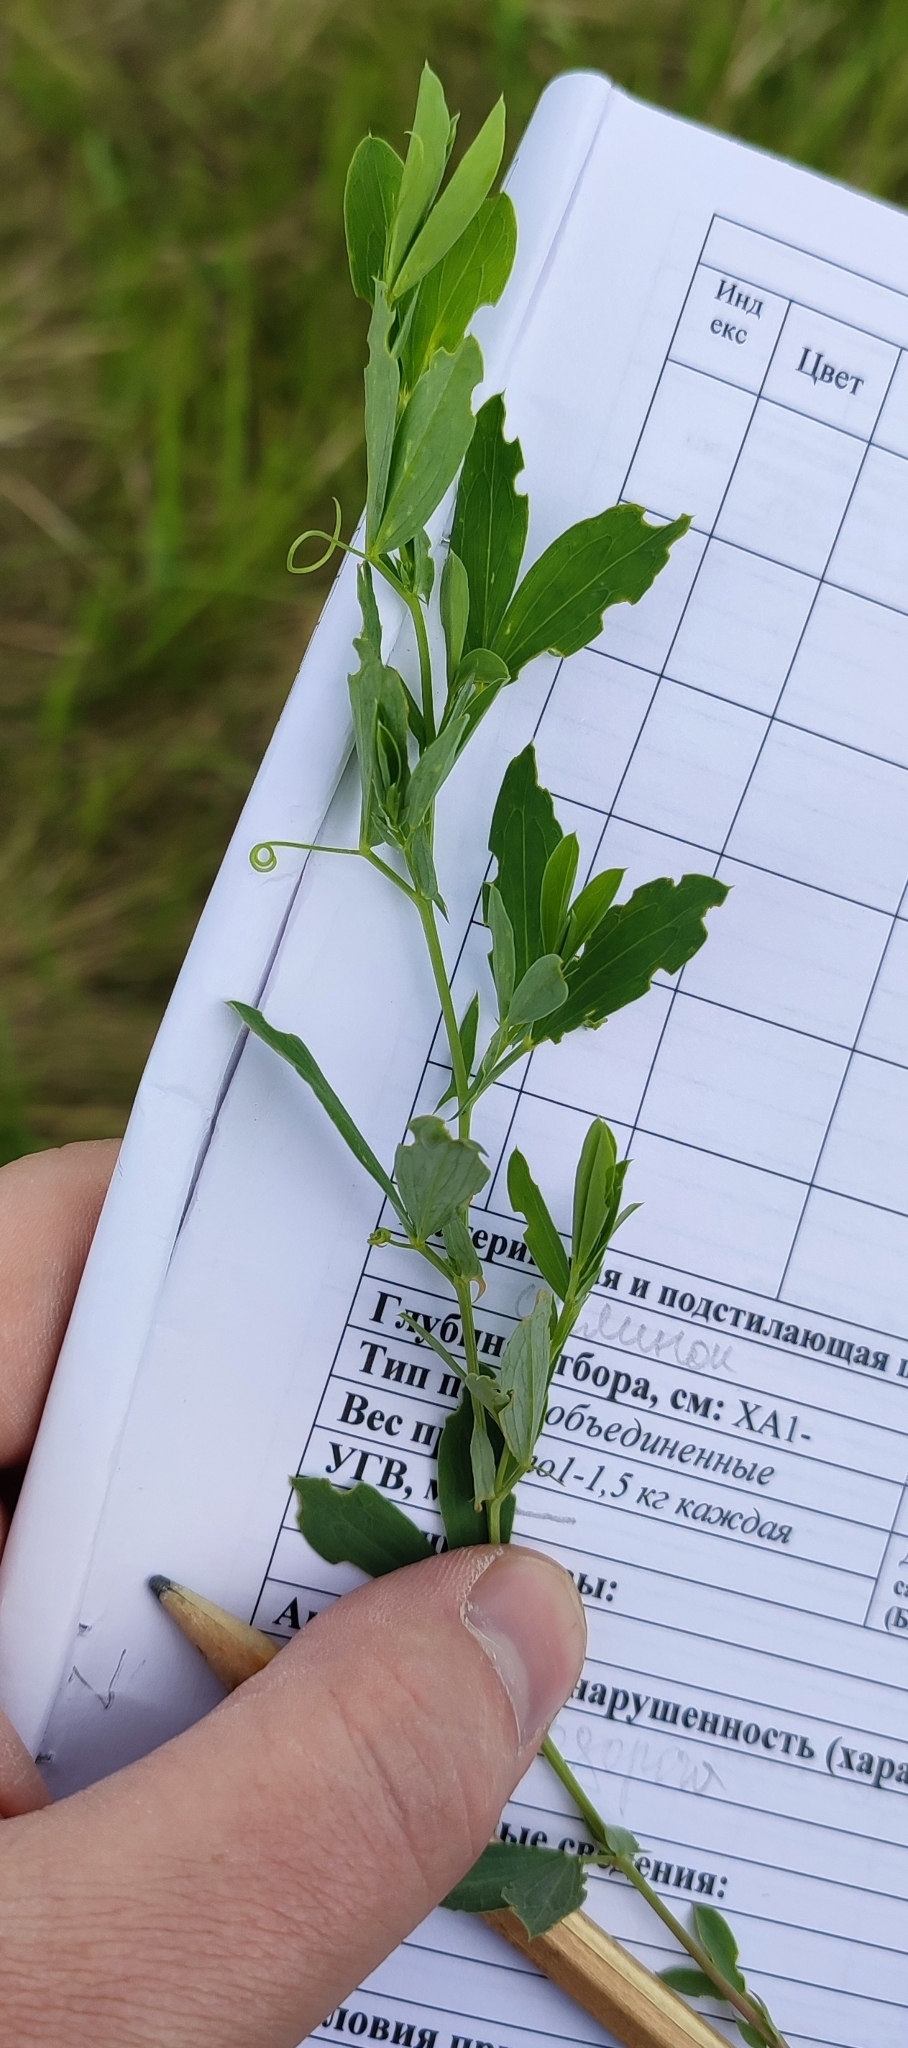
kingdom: Plantae
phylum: Tracheophyta
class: Magnoliopsida
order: Fabales
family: Fabaceae
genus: Lathyrus
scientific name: Lathyrus tuberosus
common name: Tuberous pea
